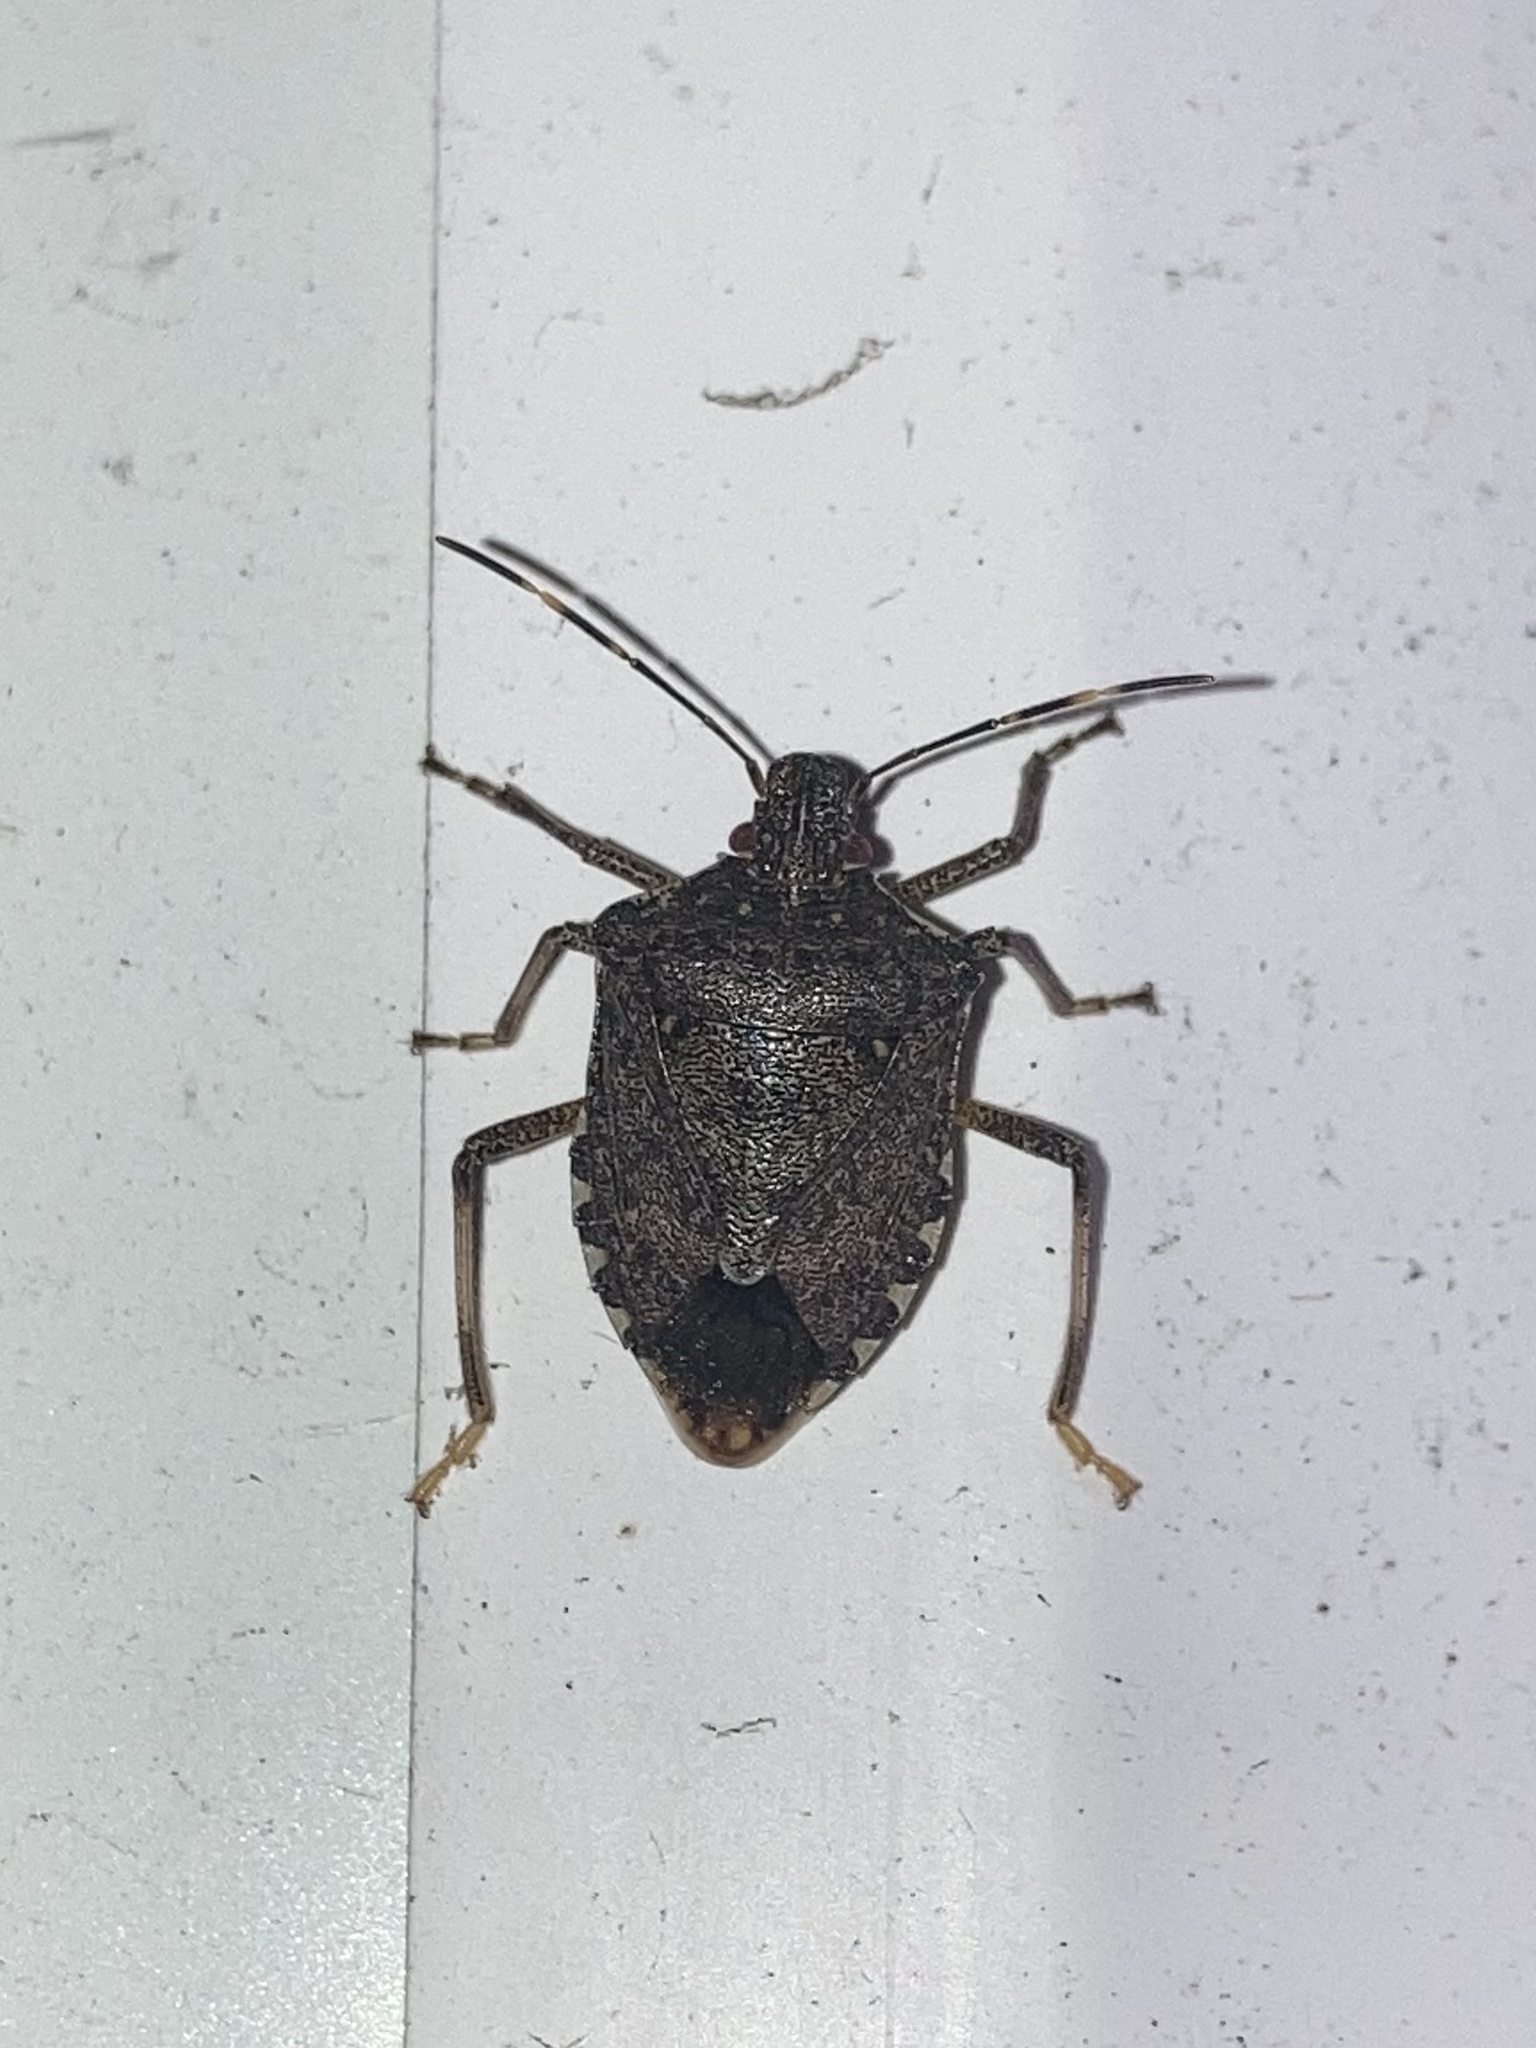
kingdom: Animalia
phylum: Arthropoda
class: Insecta
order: Hemiptera
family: Pentatomidae
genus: Halyomorpha
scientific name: Halyomorpha halys
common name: Brown marmorated stink bug
